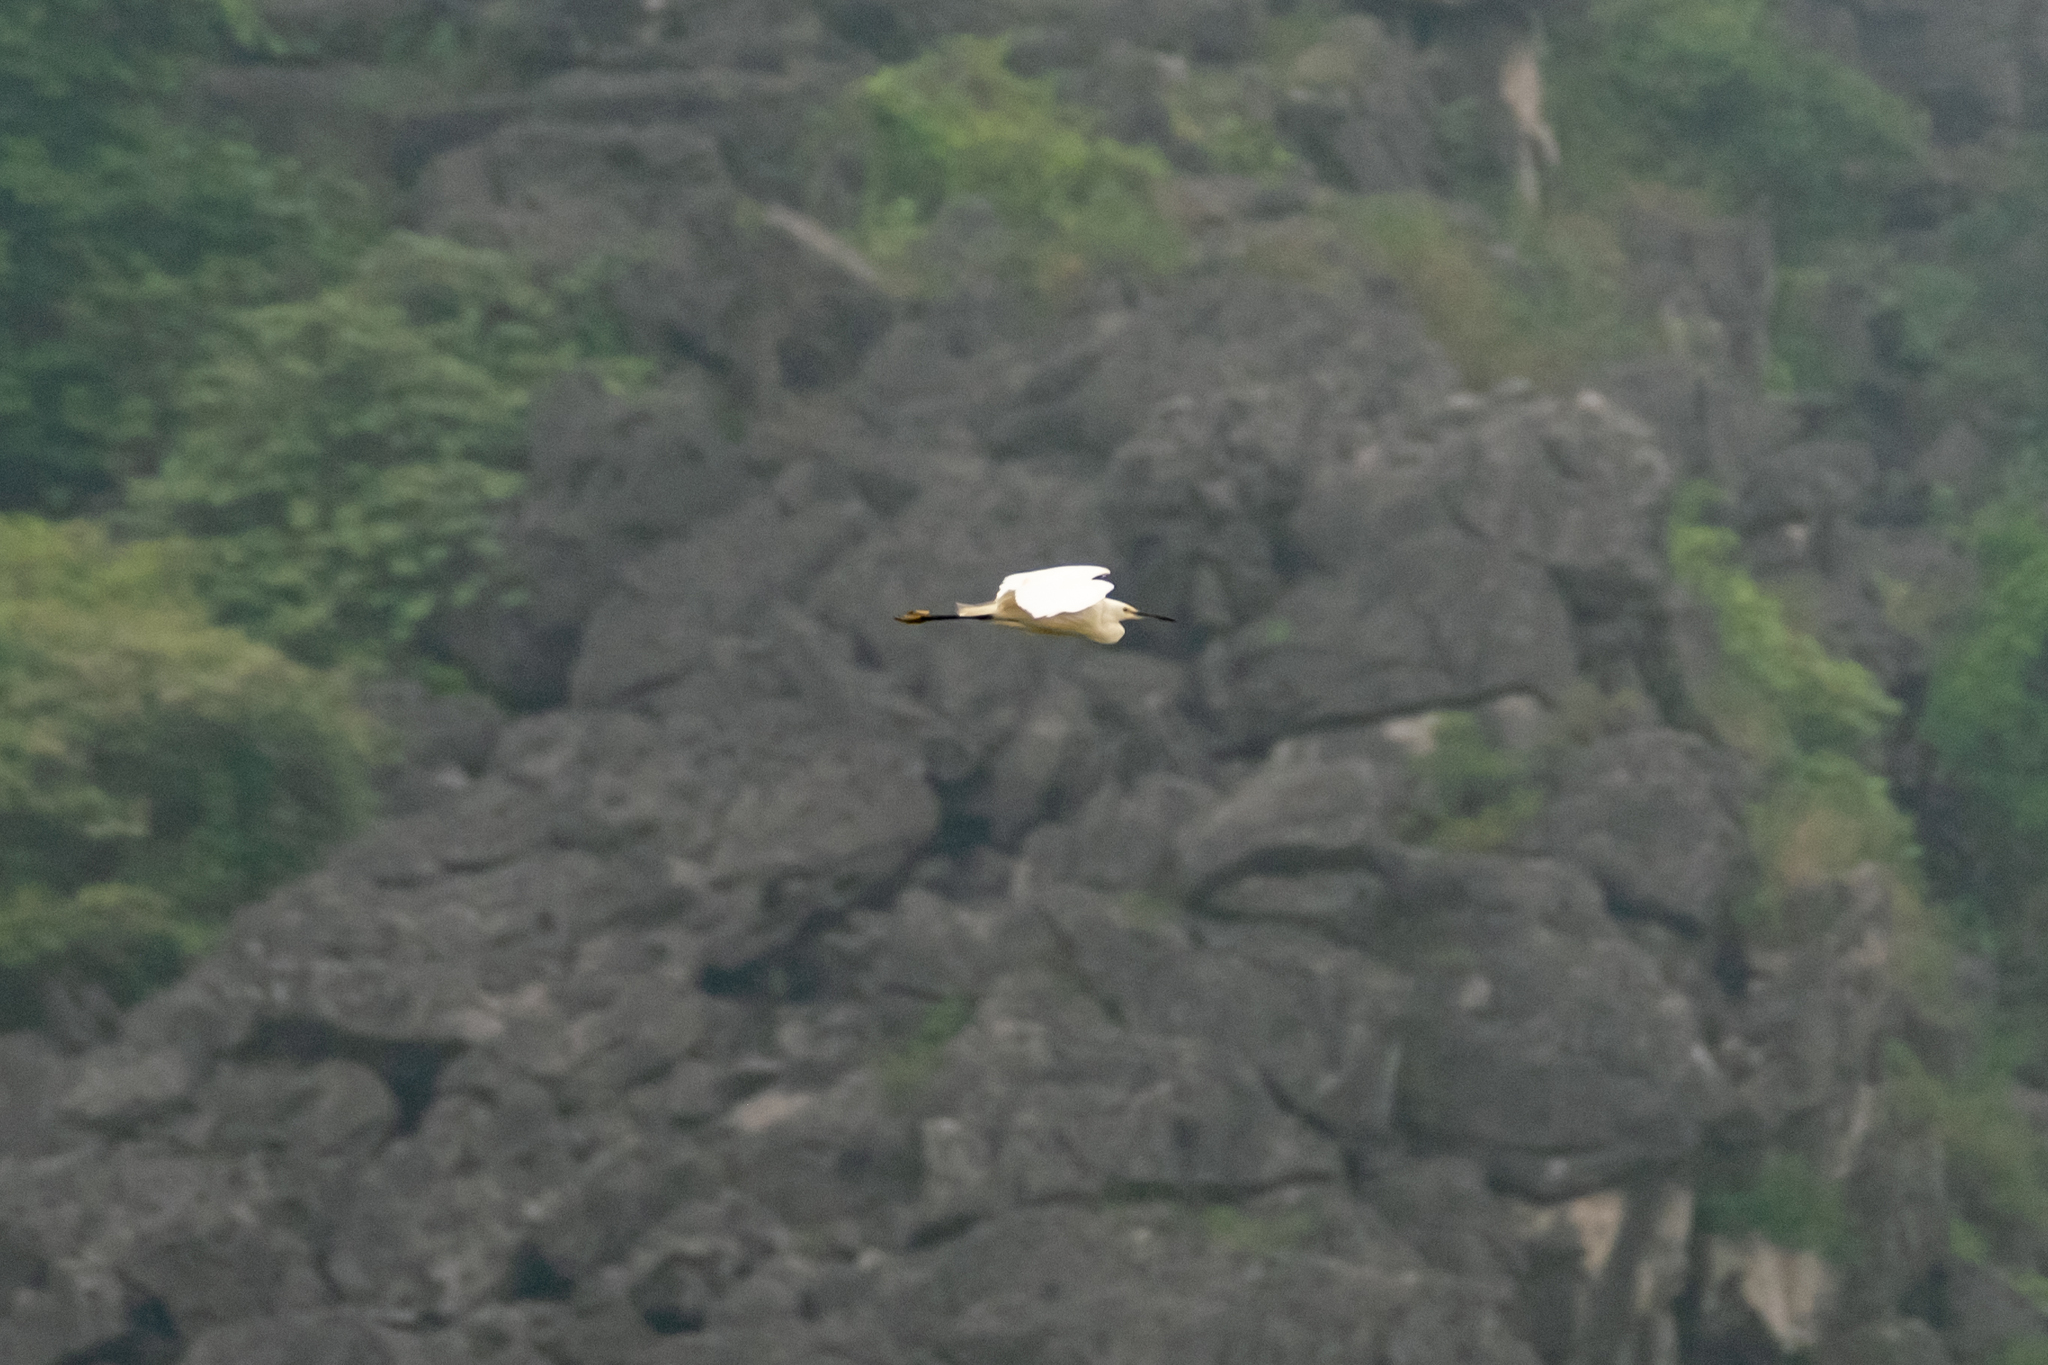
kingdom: Animalia
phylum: Chordata
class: Aves
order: Pelecaniformes
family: Ardeidae
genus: Egretta
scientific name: Egretta garzetta
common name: Little egret
